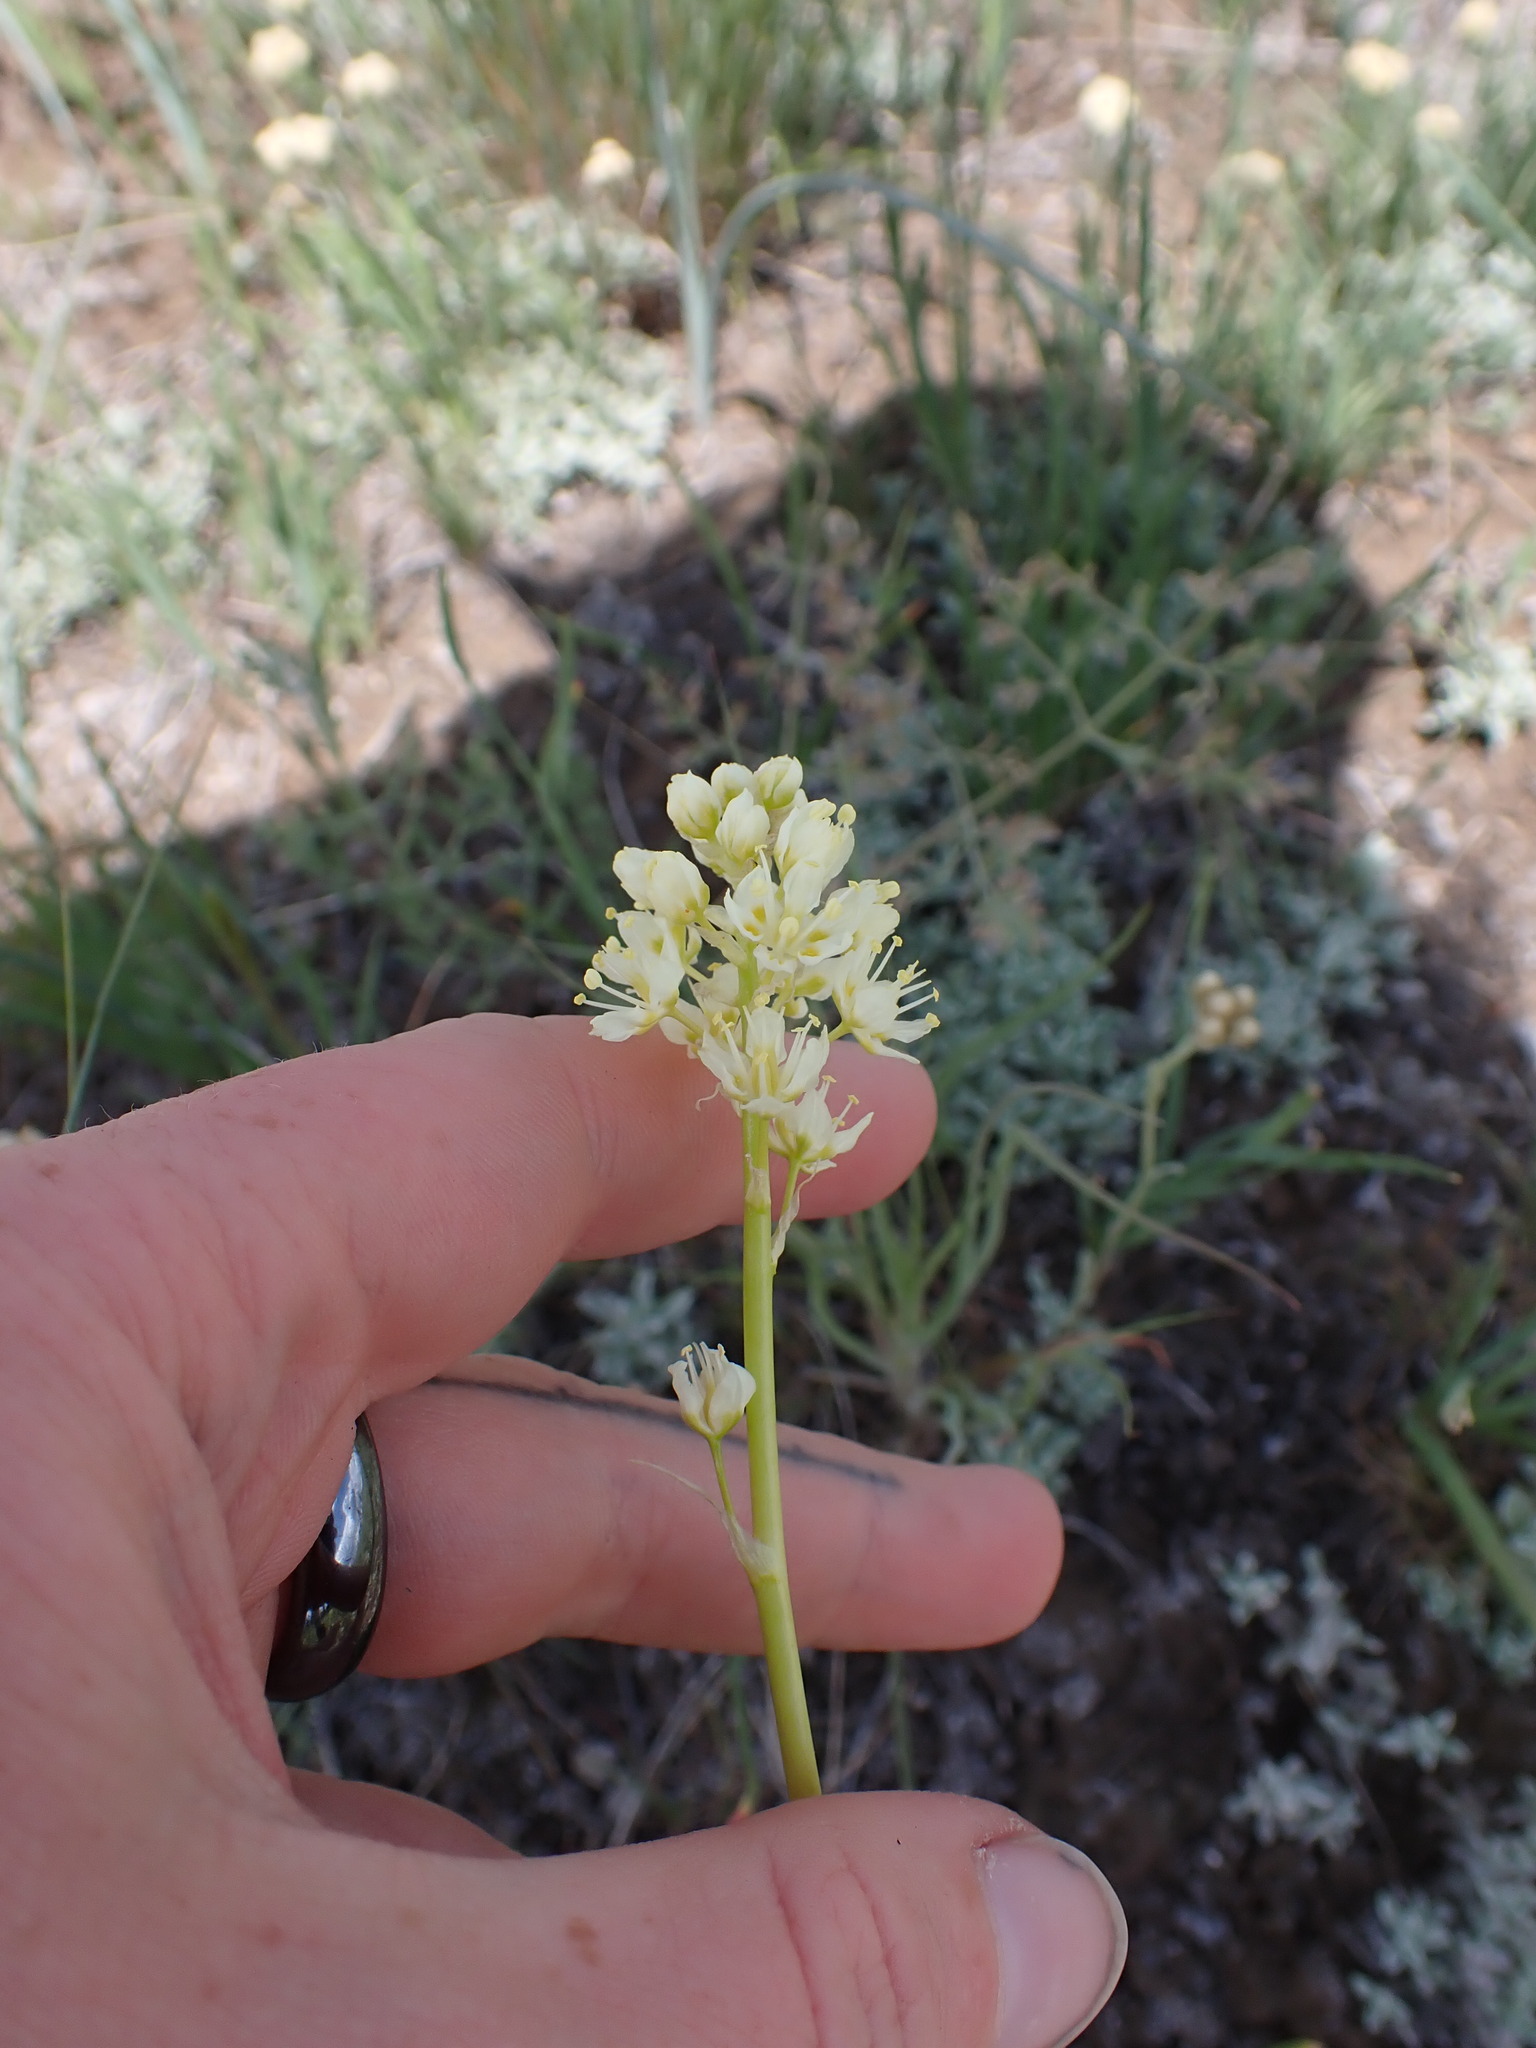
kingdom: Plantae
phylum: Tracheophyta
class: Liliopsida
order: Liliales
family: Melanthiaceae
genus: Toxicoscordion
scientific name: Toxicoscordion venenosum
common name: Meadow death camas
